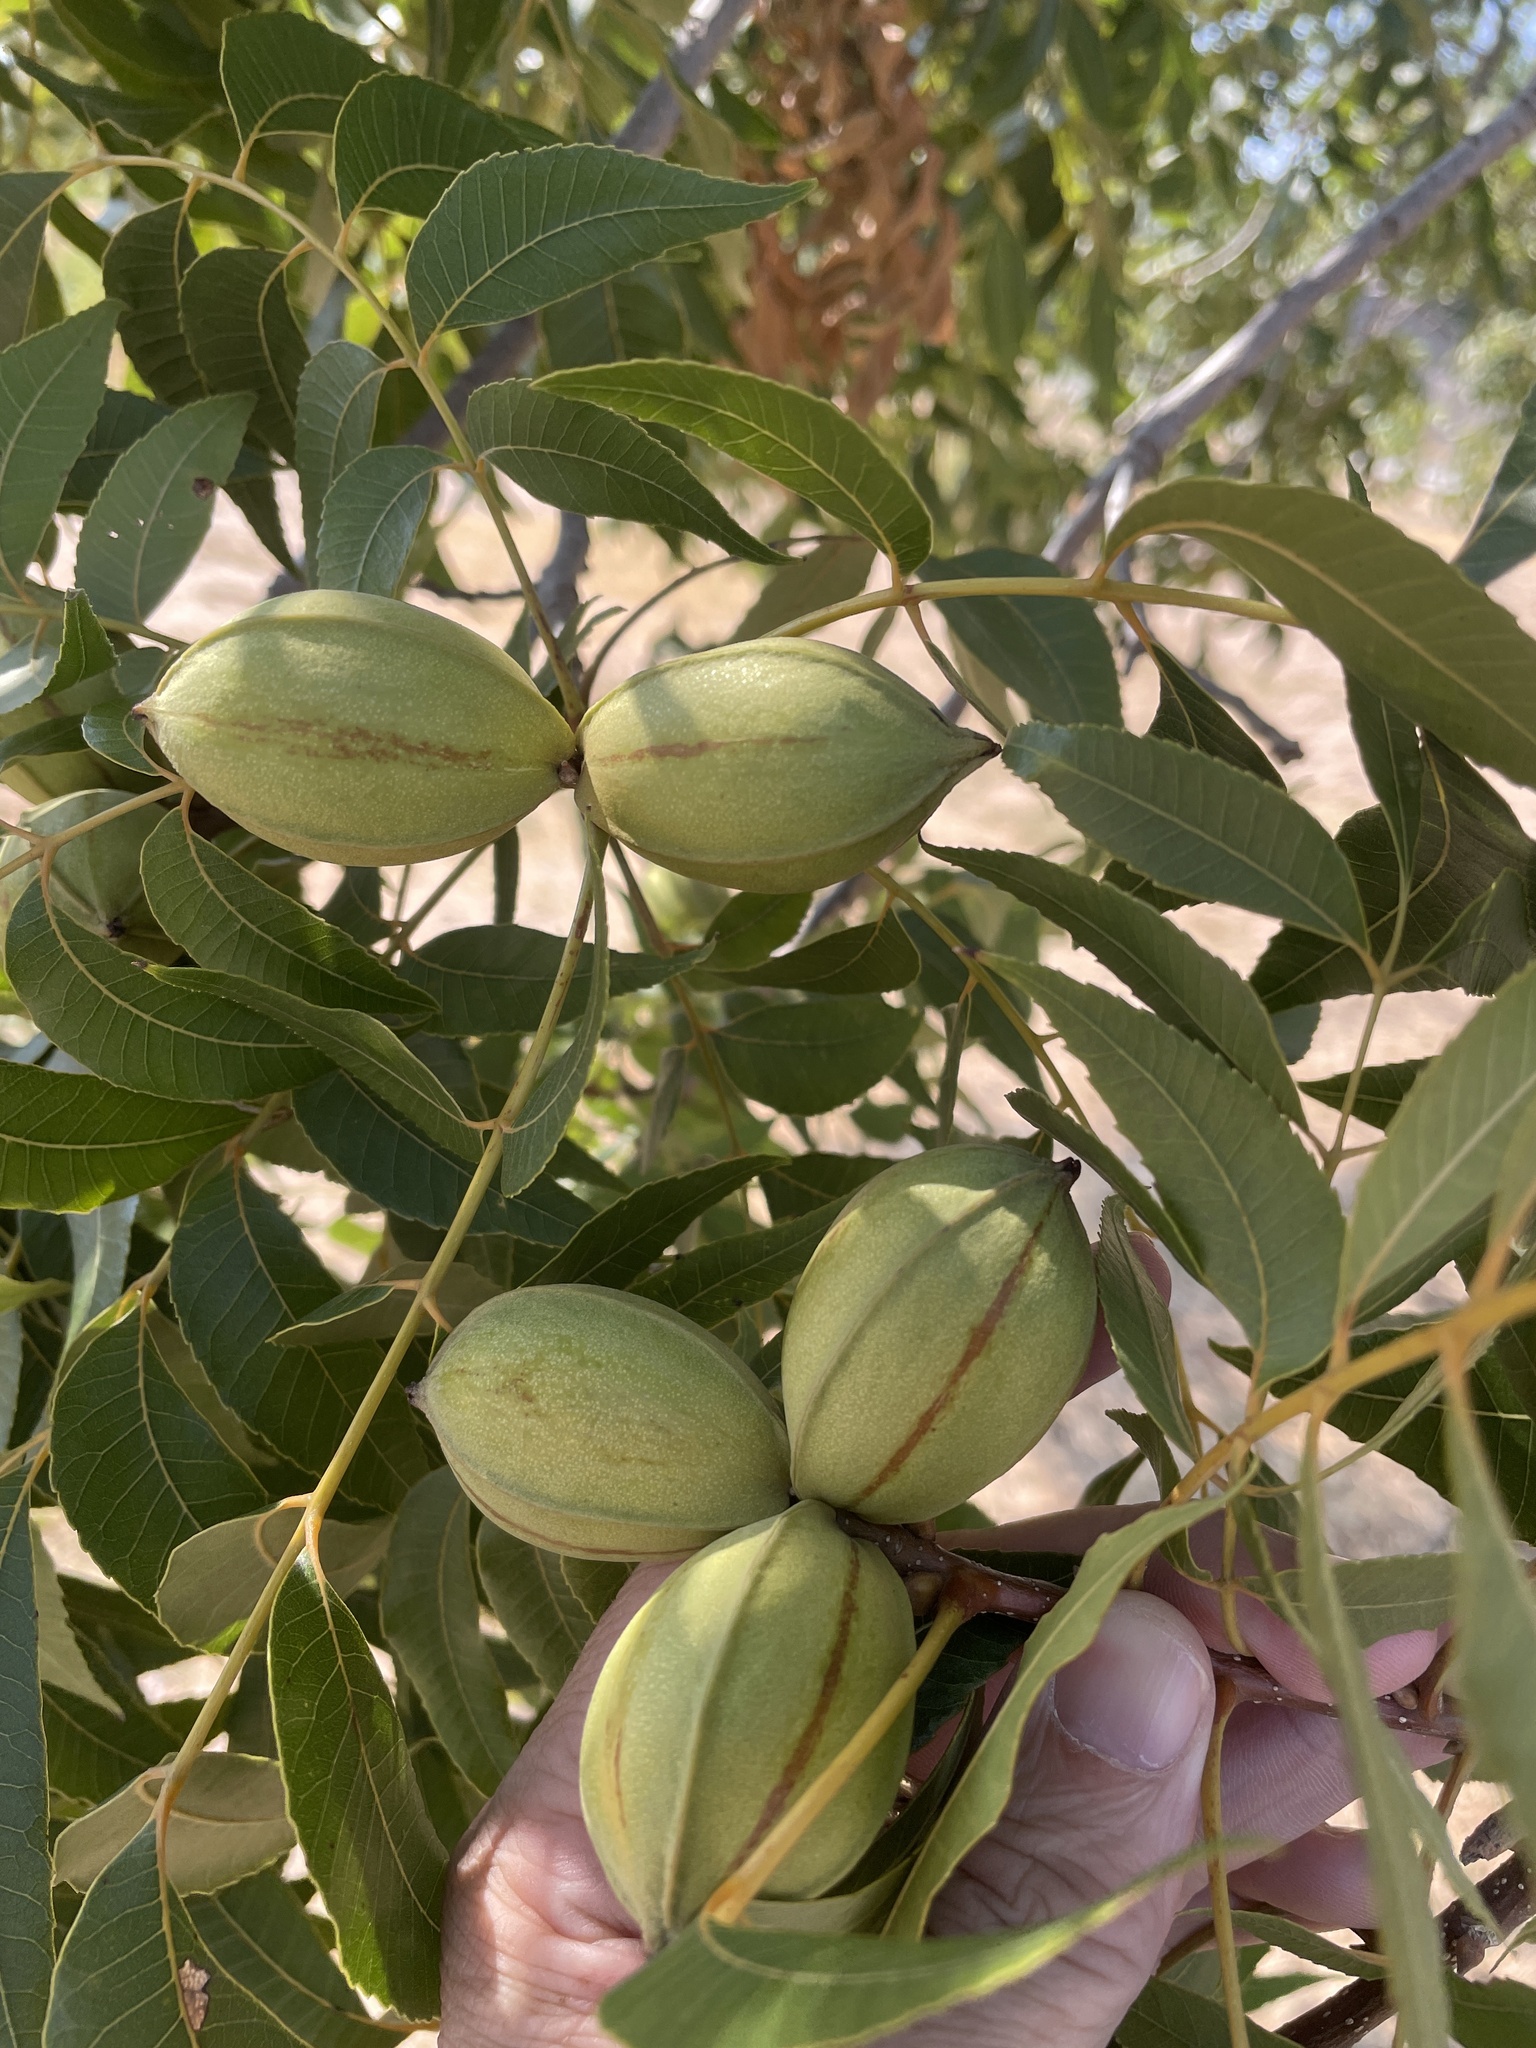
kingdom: Plantae
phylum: Tracheophyta
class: Magnoliopsida
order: Fagales
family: Juglandaceae
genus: Carya
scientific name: Carya illinoinensis
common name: Pecan
